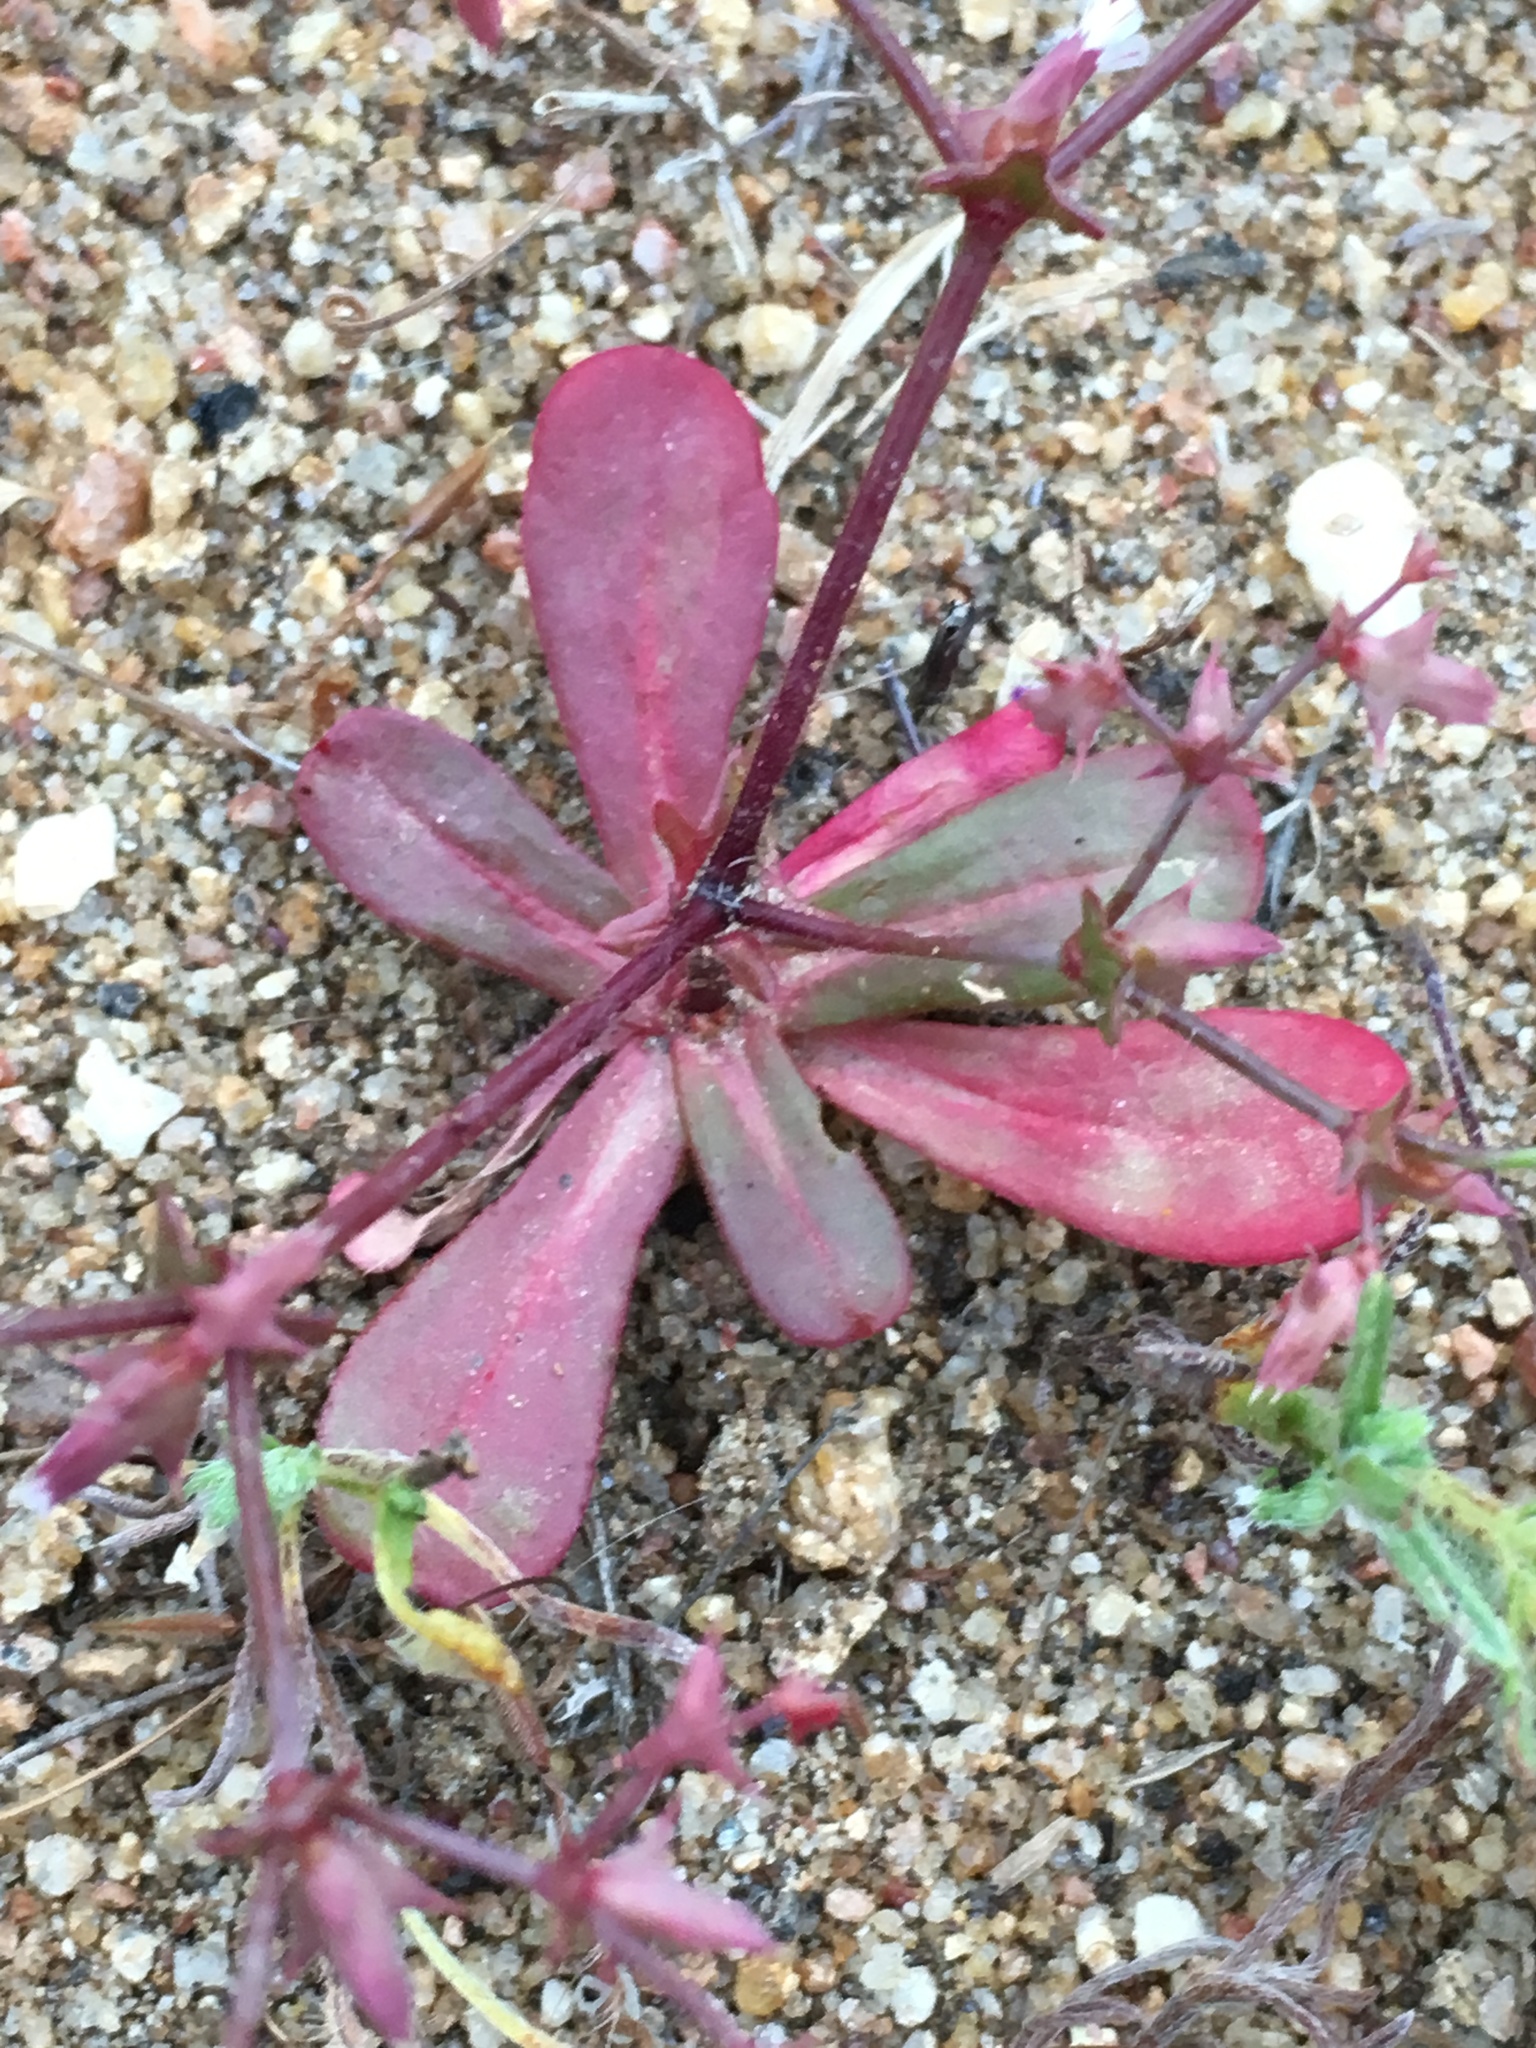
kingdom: Plantae
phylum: Tracheophyta
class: Magnoliopsida
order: Caryophyllales
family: Polygonaceae
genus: Centrostegia
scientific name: Centrostegia thurberi
